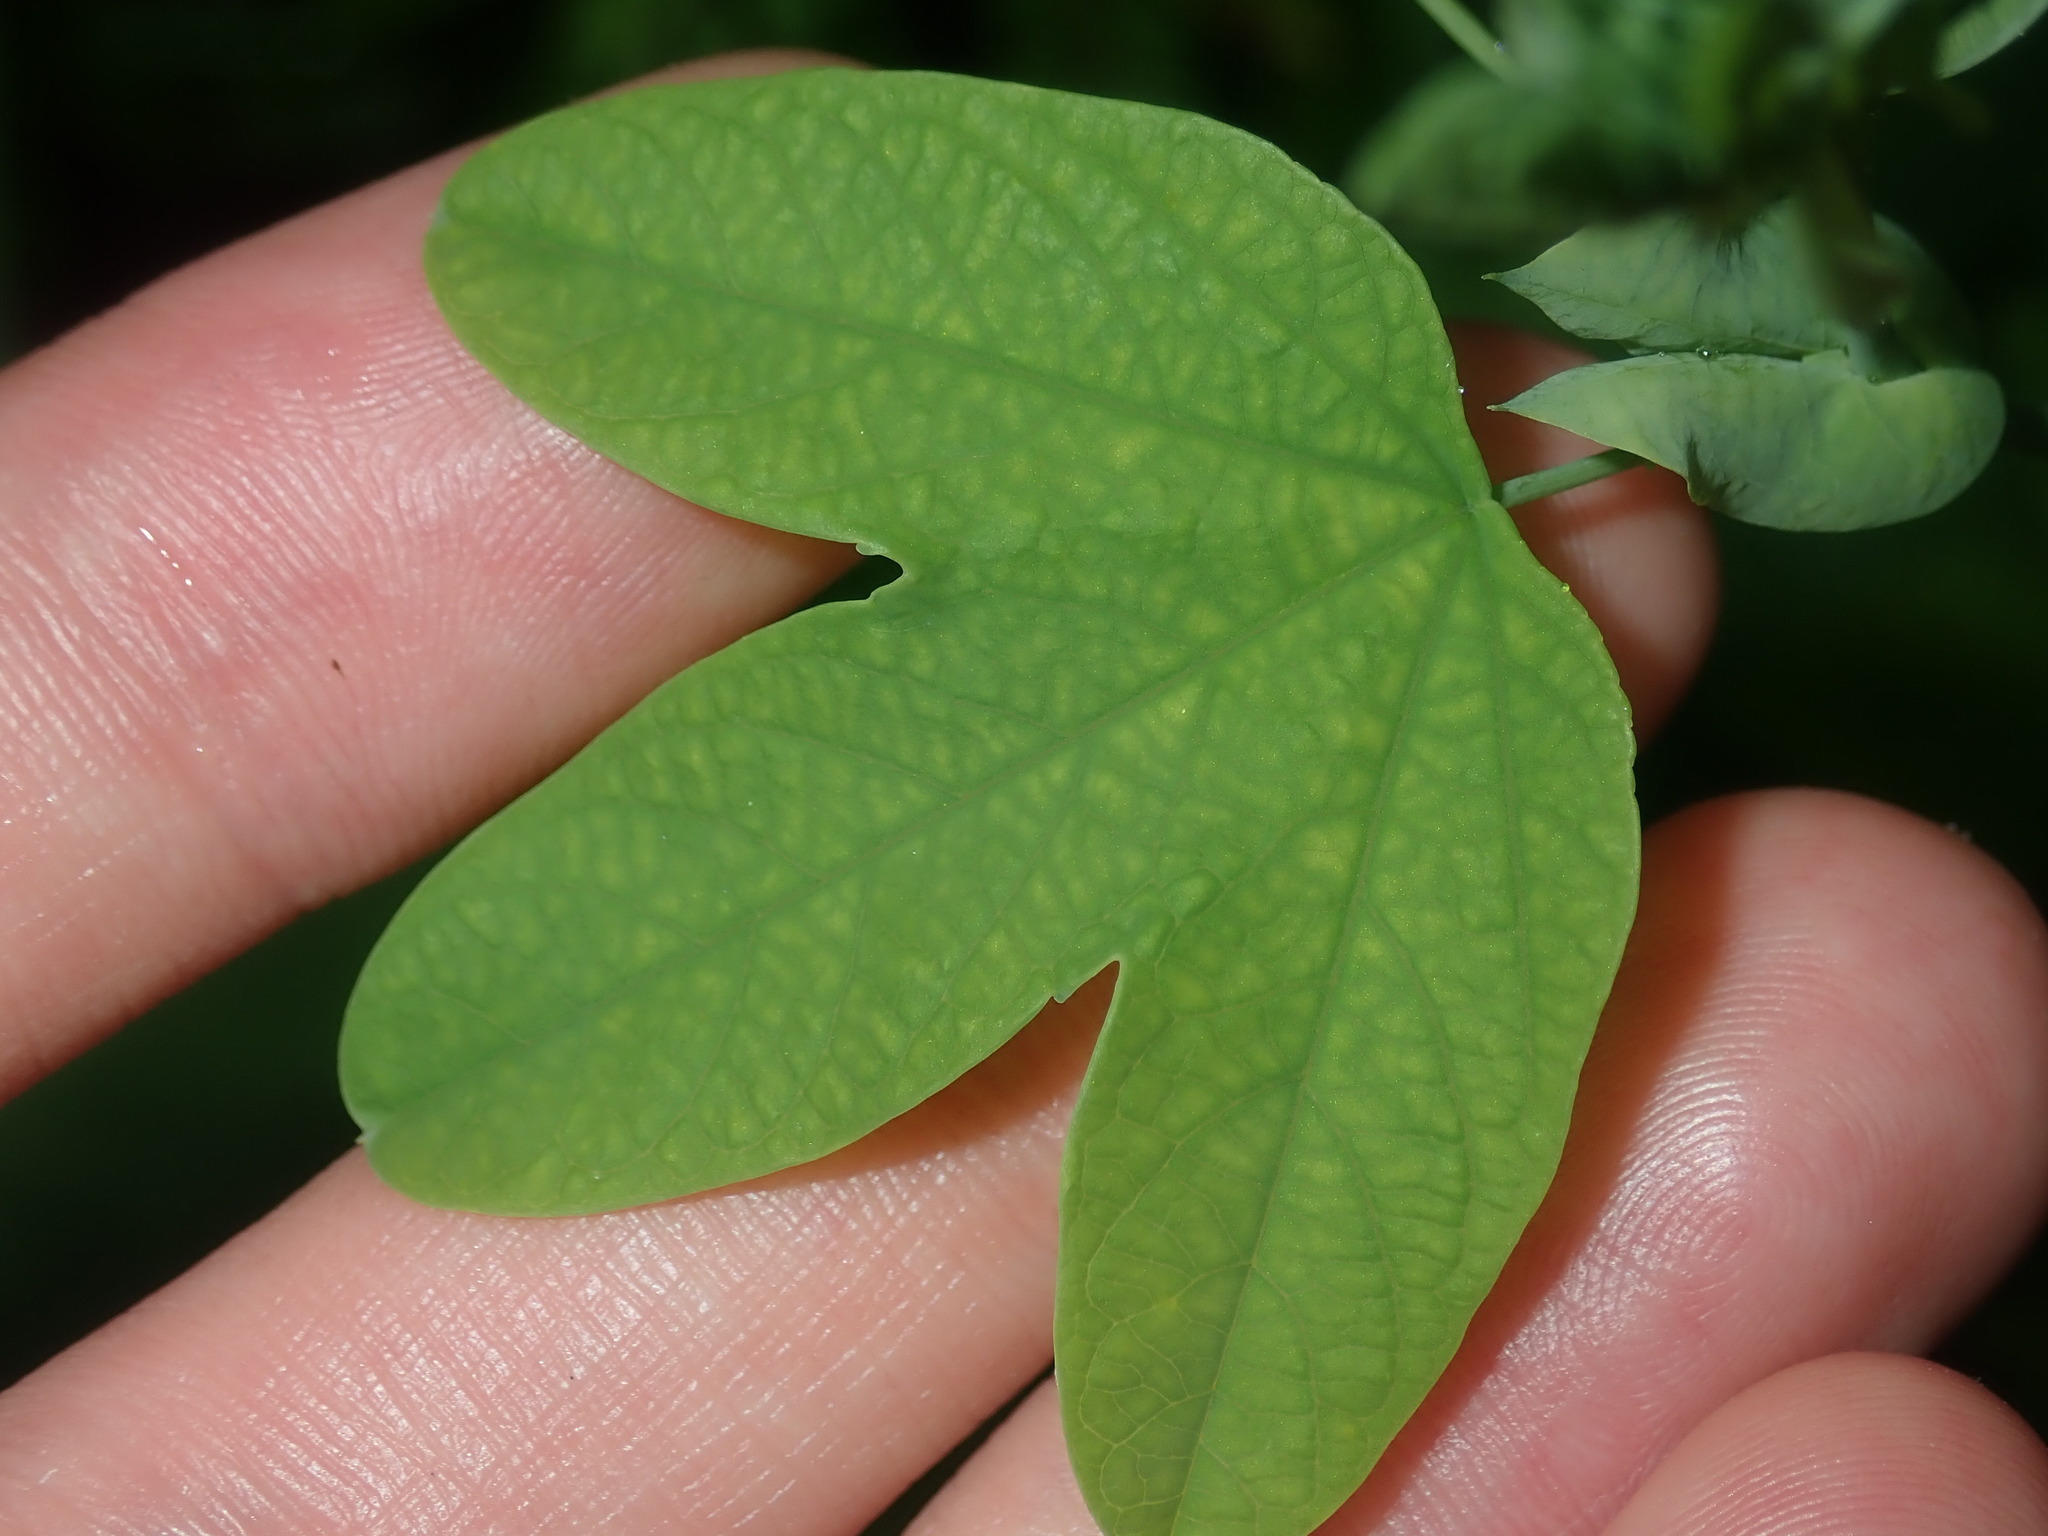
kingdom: Plantae
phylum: Tracheophyta
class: Magnoliopsida
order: Malpighiales
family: Passifloraceae
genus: Passiflora
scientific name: Passiflora subpeltata
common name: White passionflower
